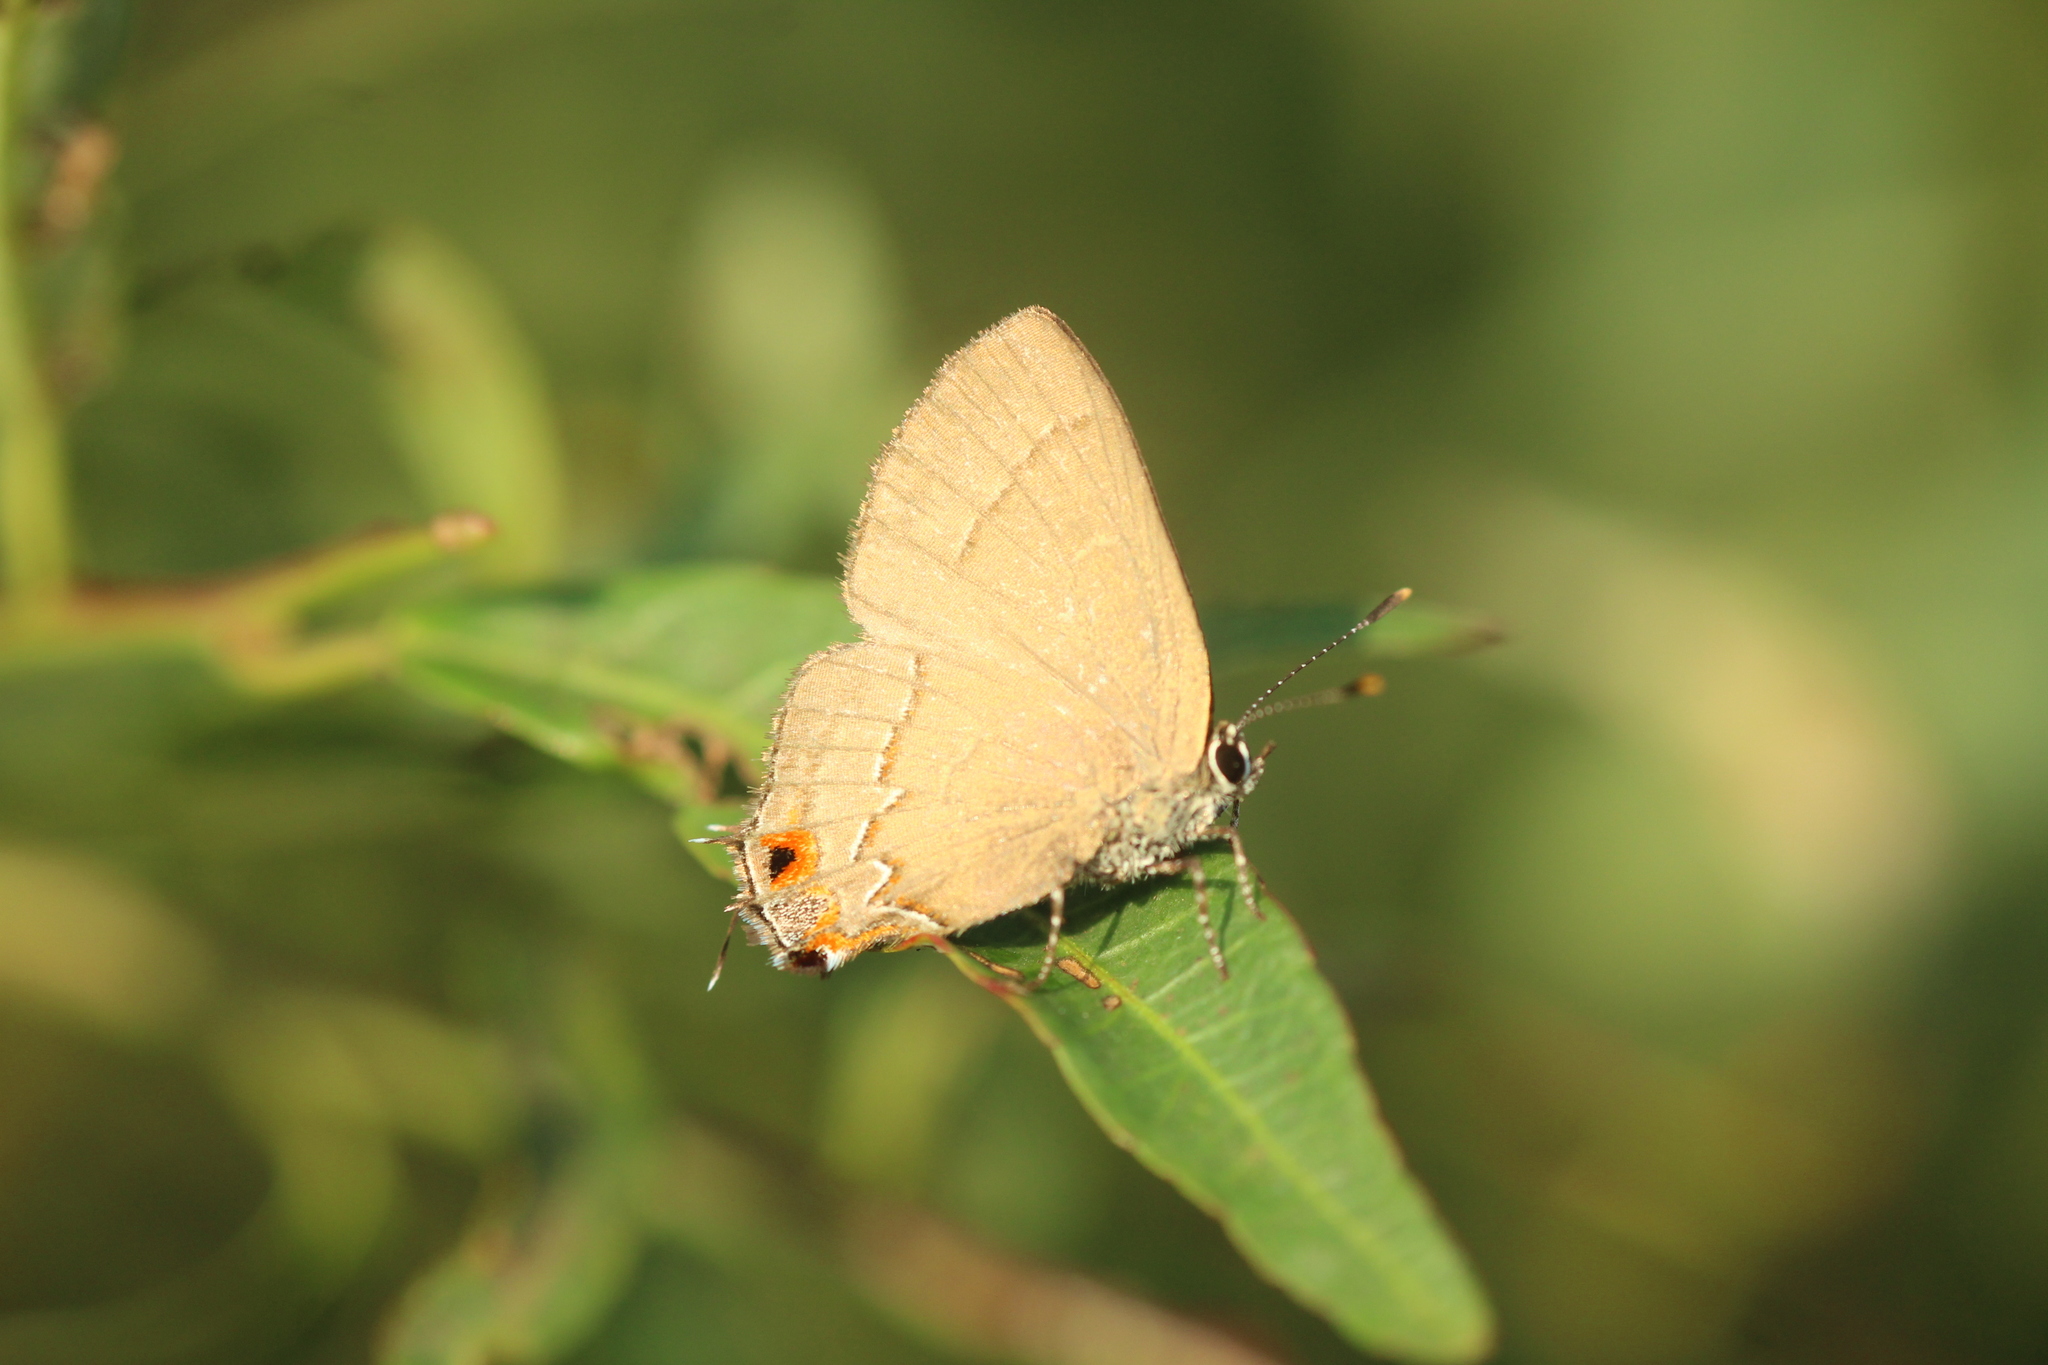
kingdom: Animalia
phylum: Arthropoda
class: Insecta
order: Lepidoptera
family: Lycaenidae
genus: Arzecla
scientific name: Arzecla tucumanensis
